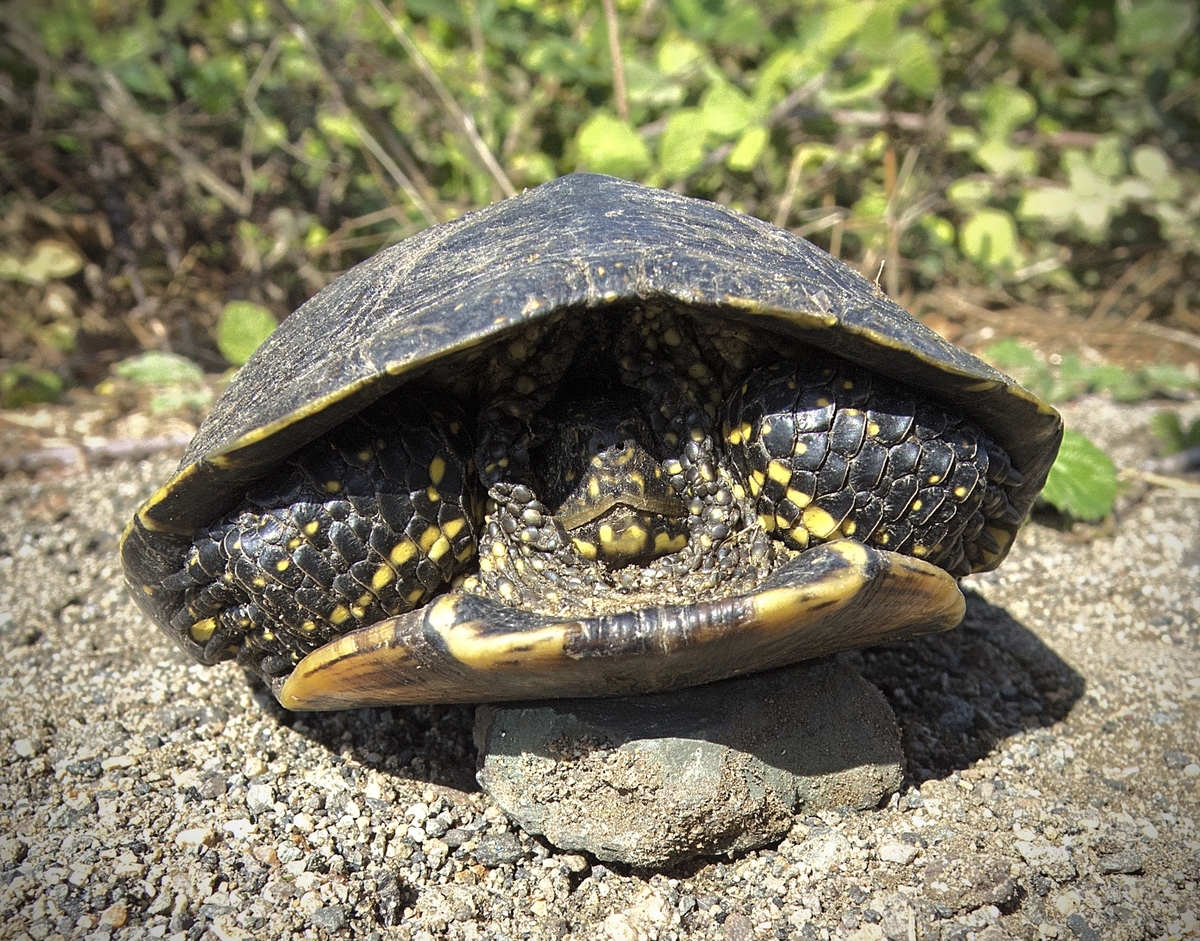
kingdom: Animalia
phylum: Chordata
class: Testudines
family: Emydidae
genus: Emys
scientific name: Emys orbicularis
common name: European pond turtle
